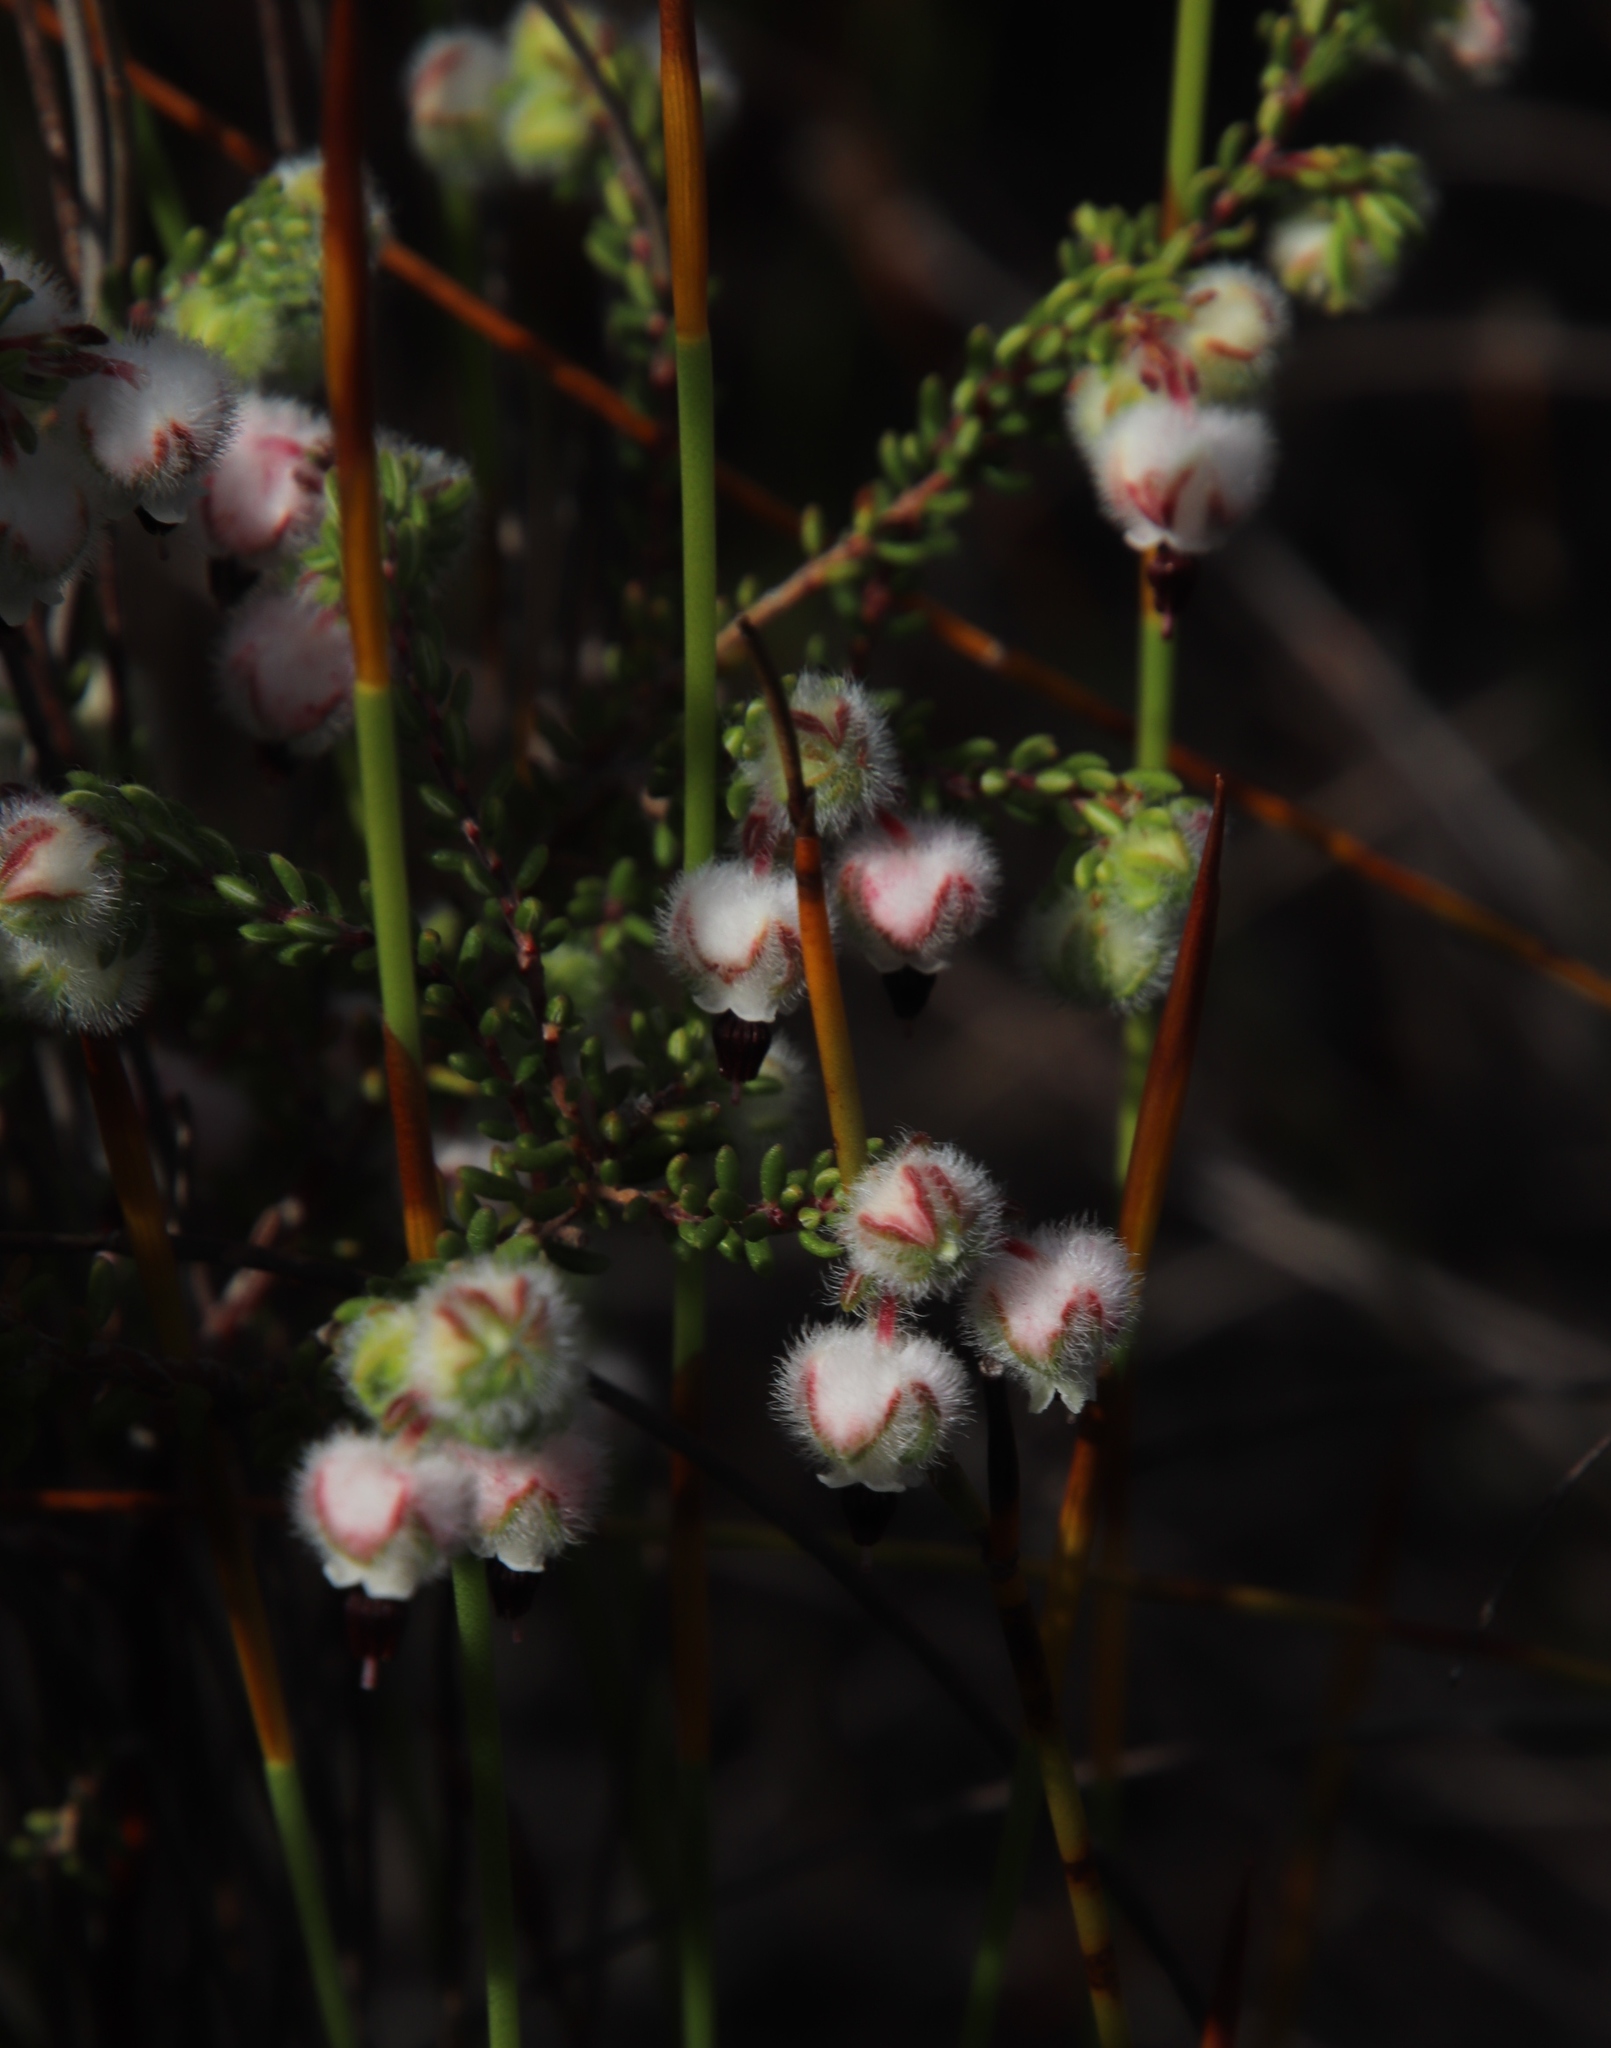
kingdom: Plantae
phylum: Tracheophyta
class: Magnoliopsida
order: Ericales
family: Ericaceae
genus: Erica
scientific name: Erica bruniades
